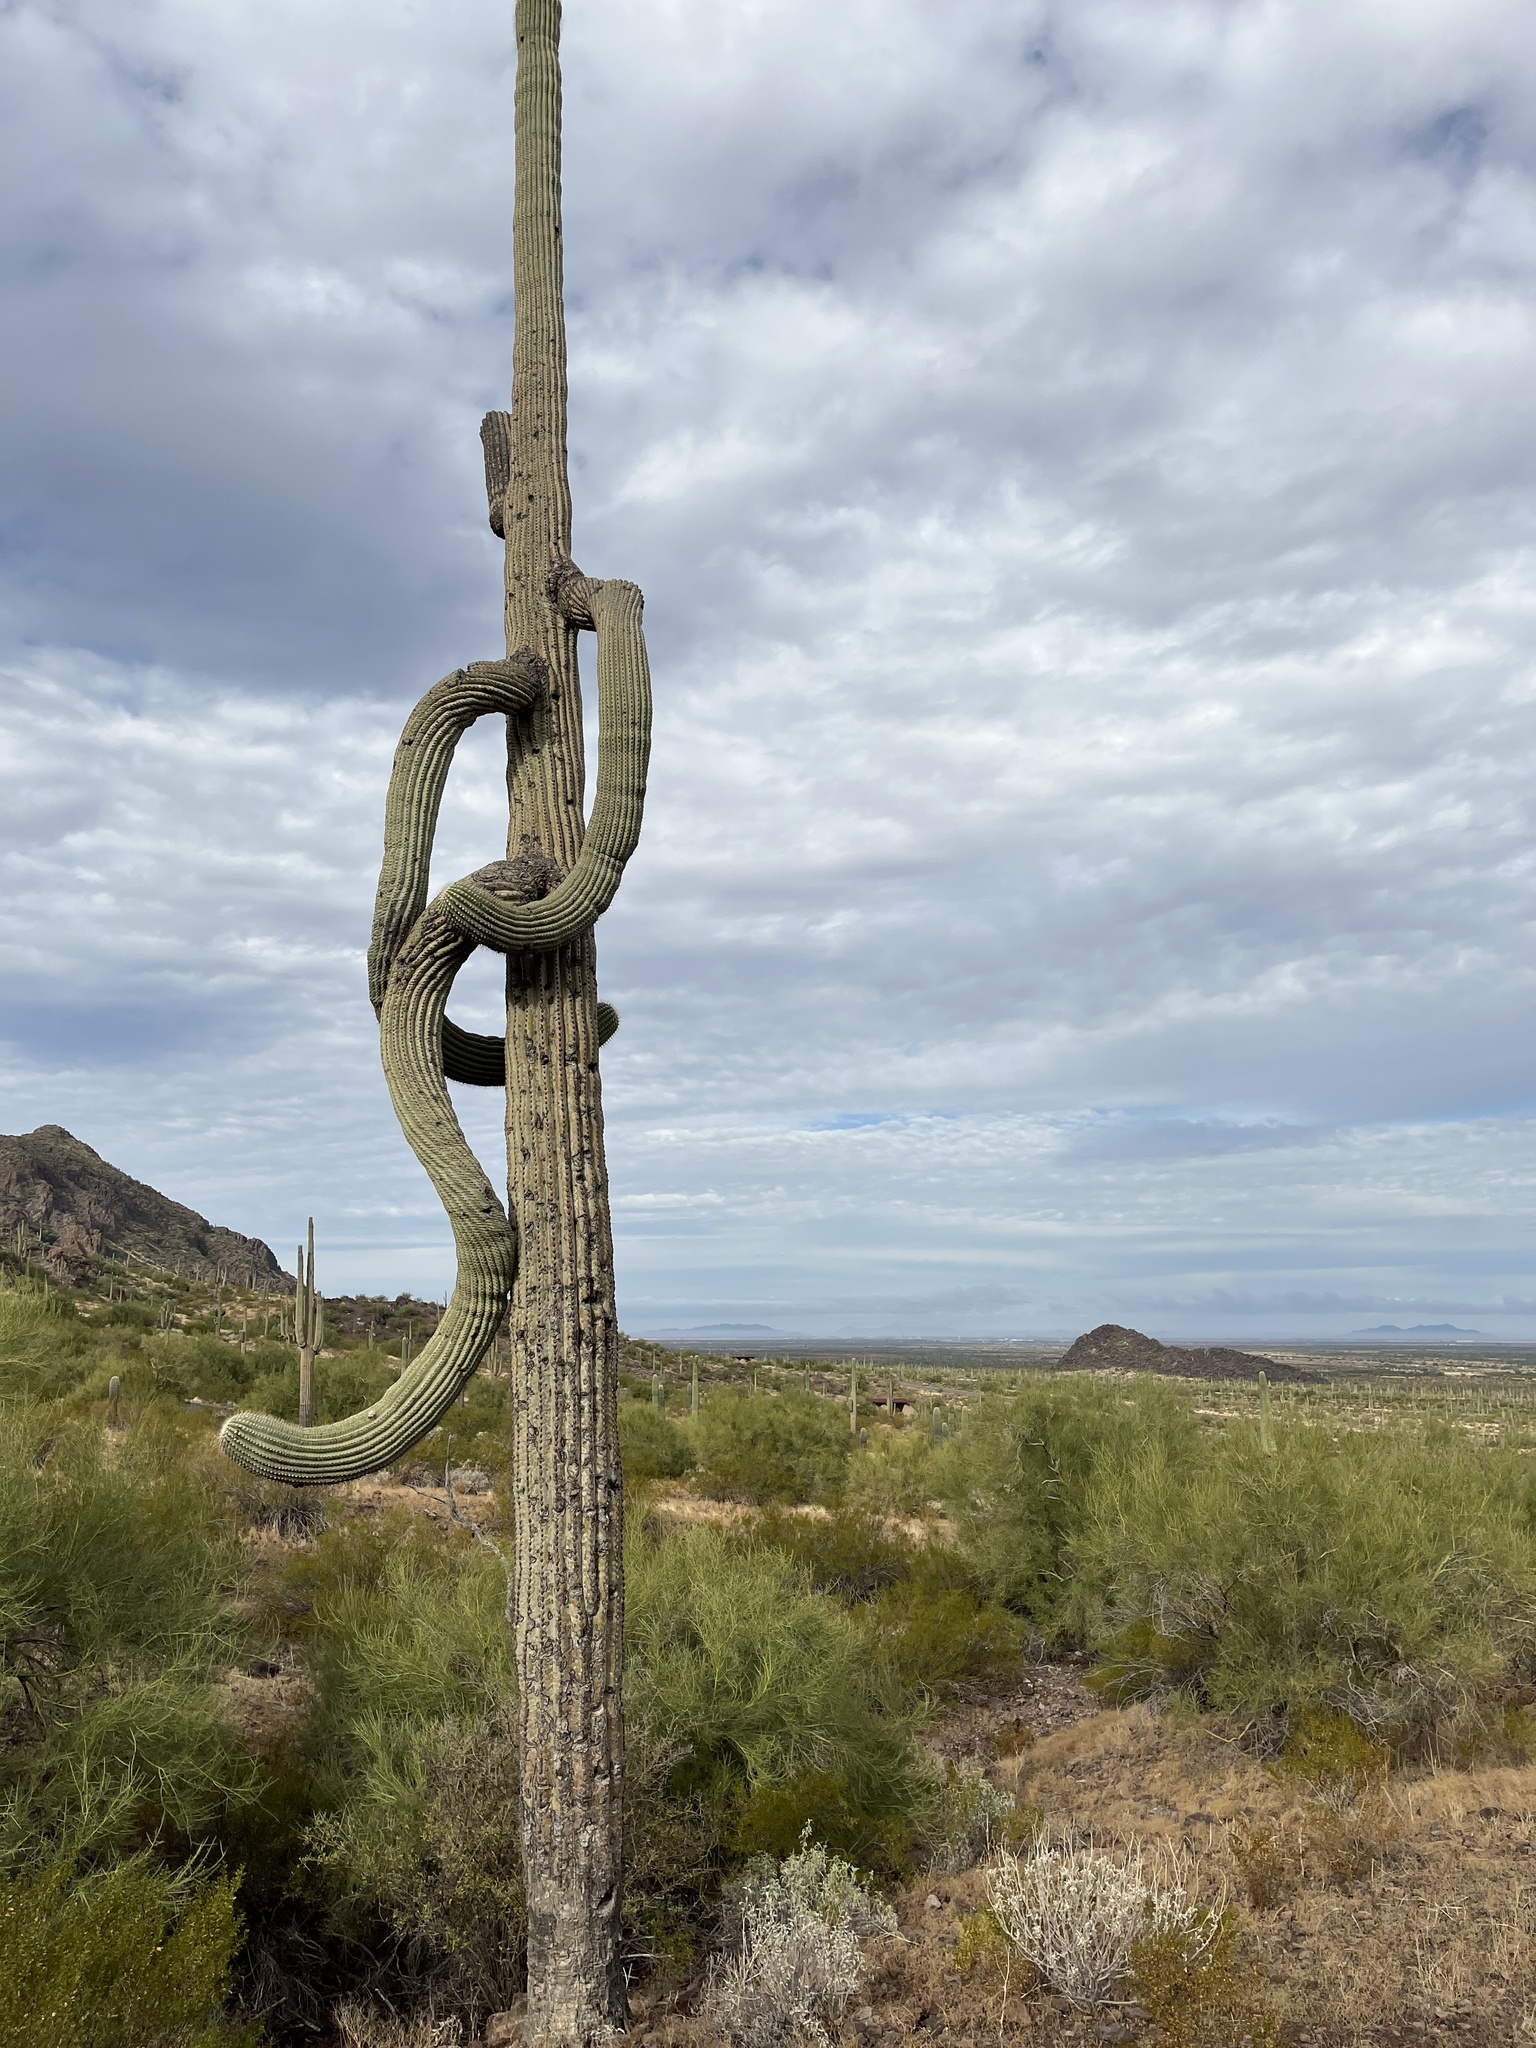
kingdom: Plantae
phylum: Tracheophyta
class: Magnoliopsida
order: Caryophyllales
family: Cactaceae
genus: Carnegiea
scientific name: Carnegiea gigantea
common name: Saguaro
